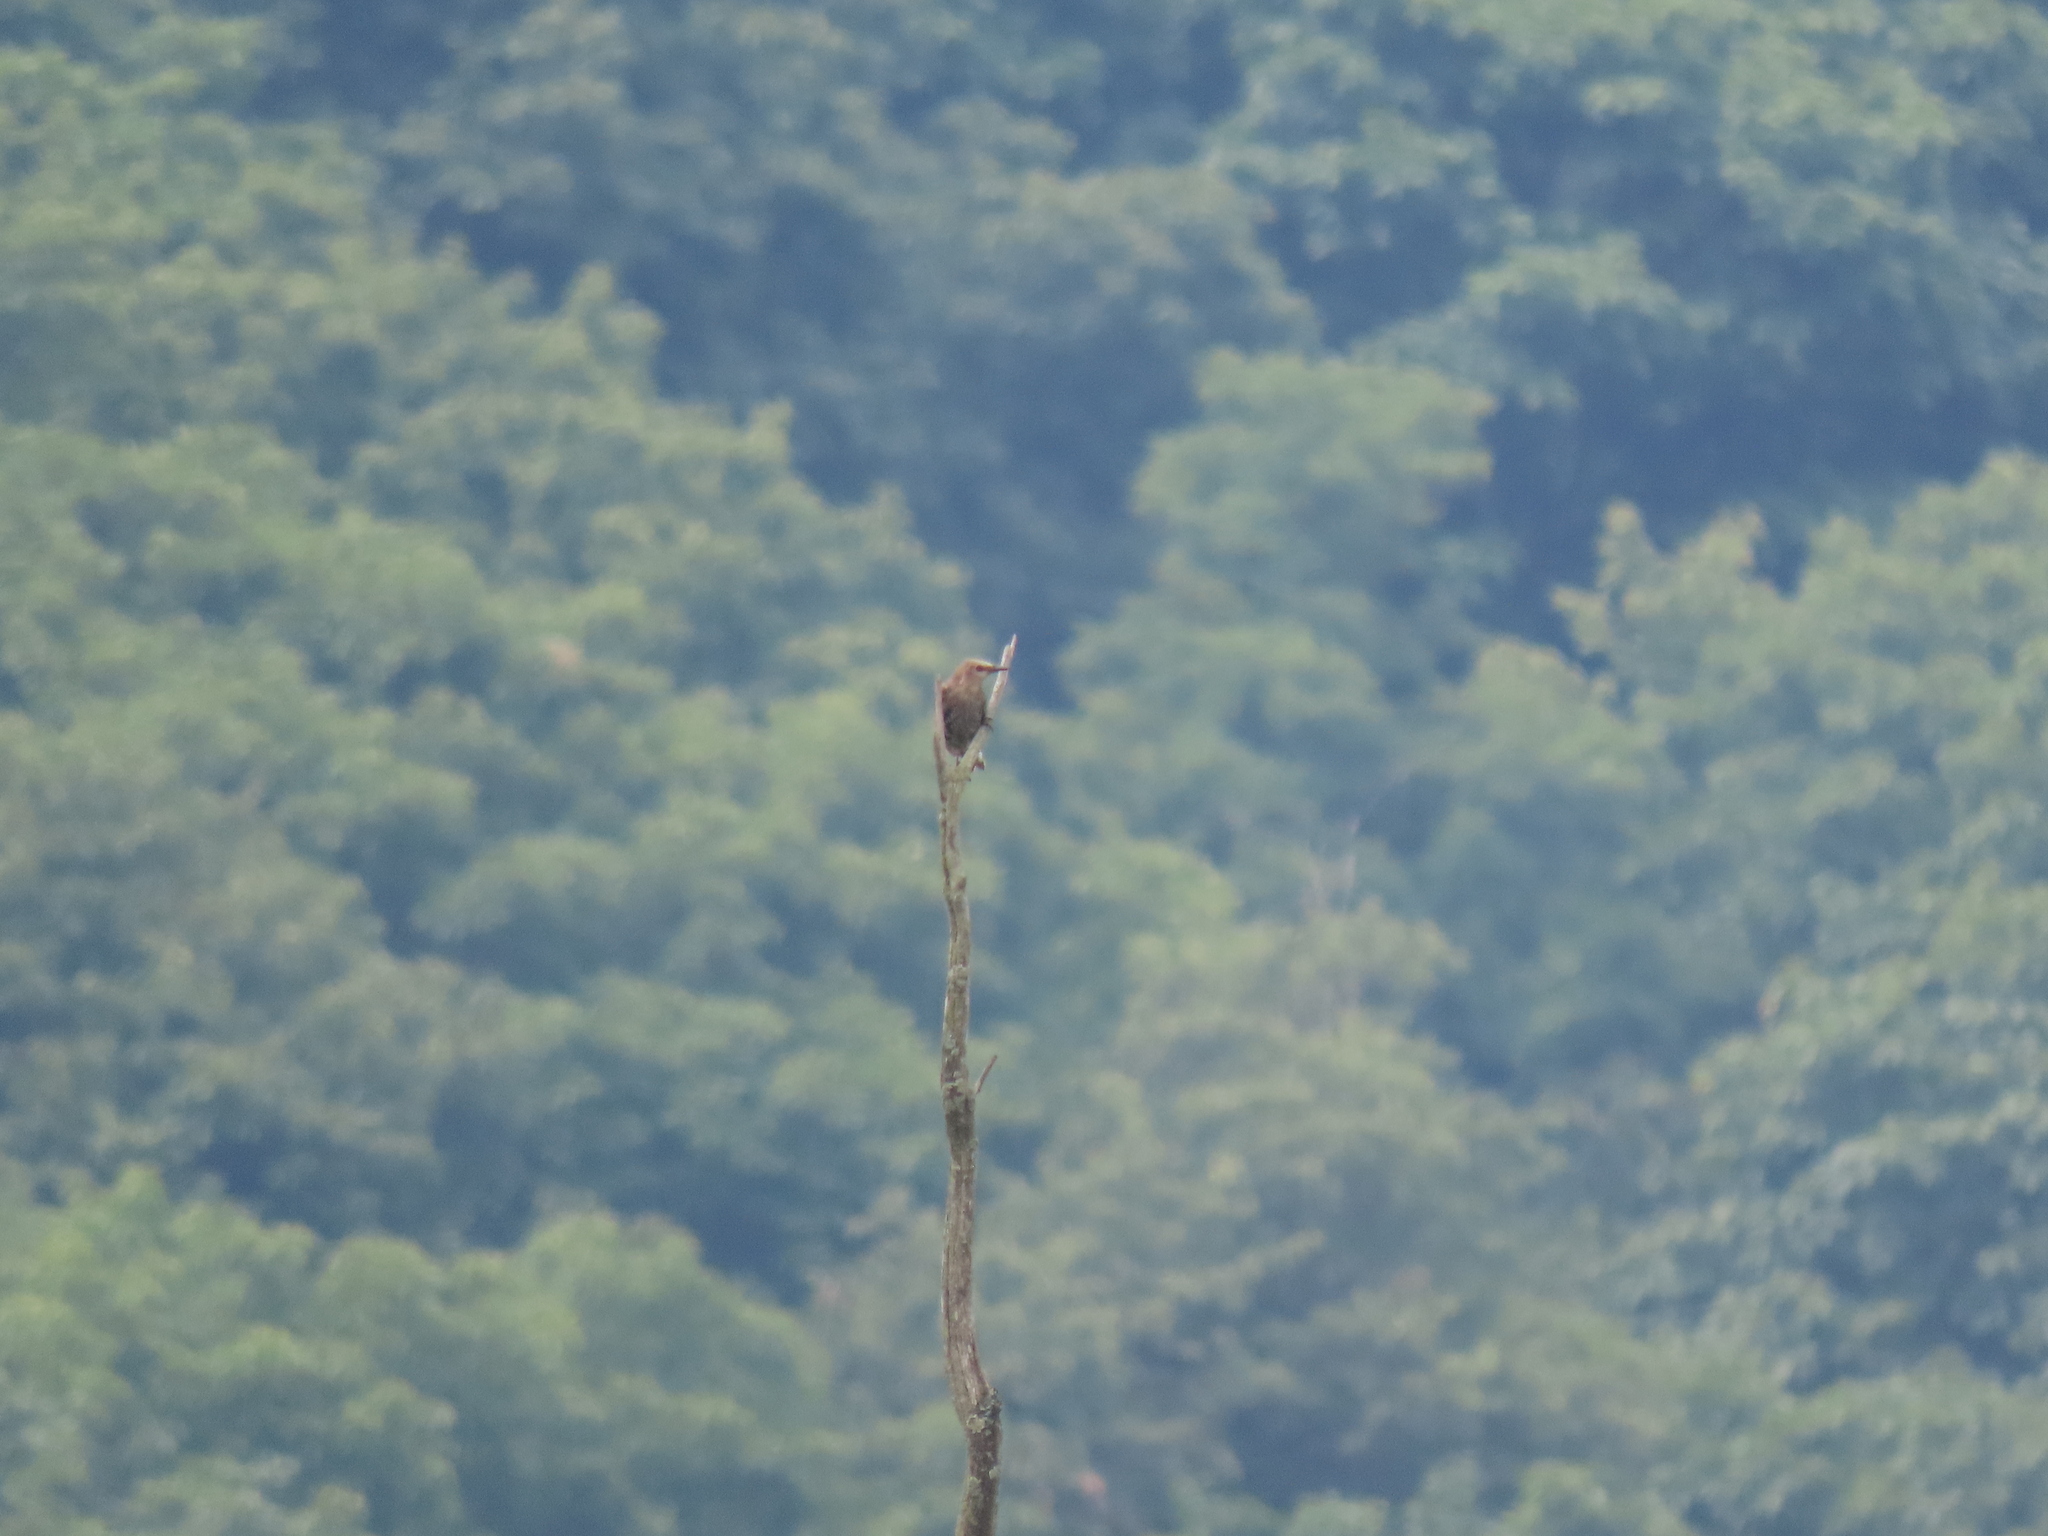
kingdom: Animalia
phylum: Chordata
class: Aves
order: Passeriformes
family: Sturnidae
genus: Sturnus
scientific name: Sturnus vulgaris
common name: Common starling
